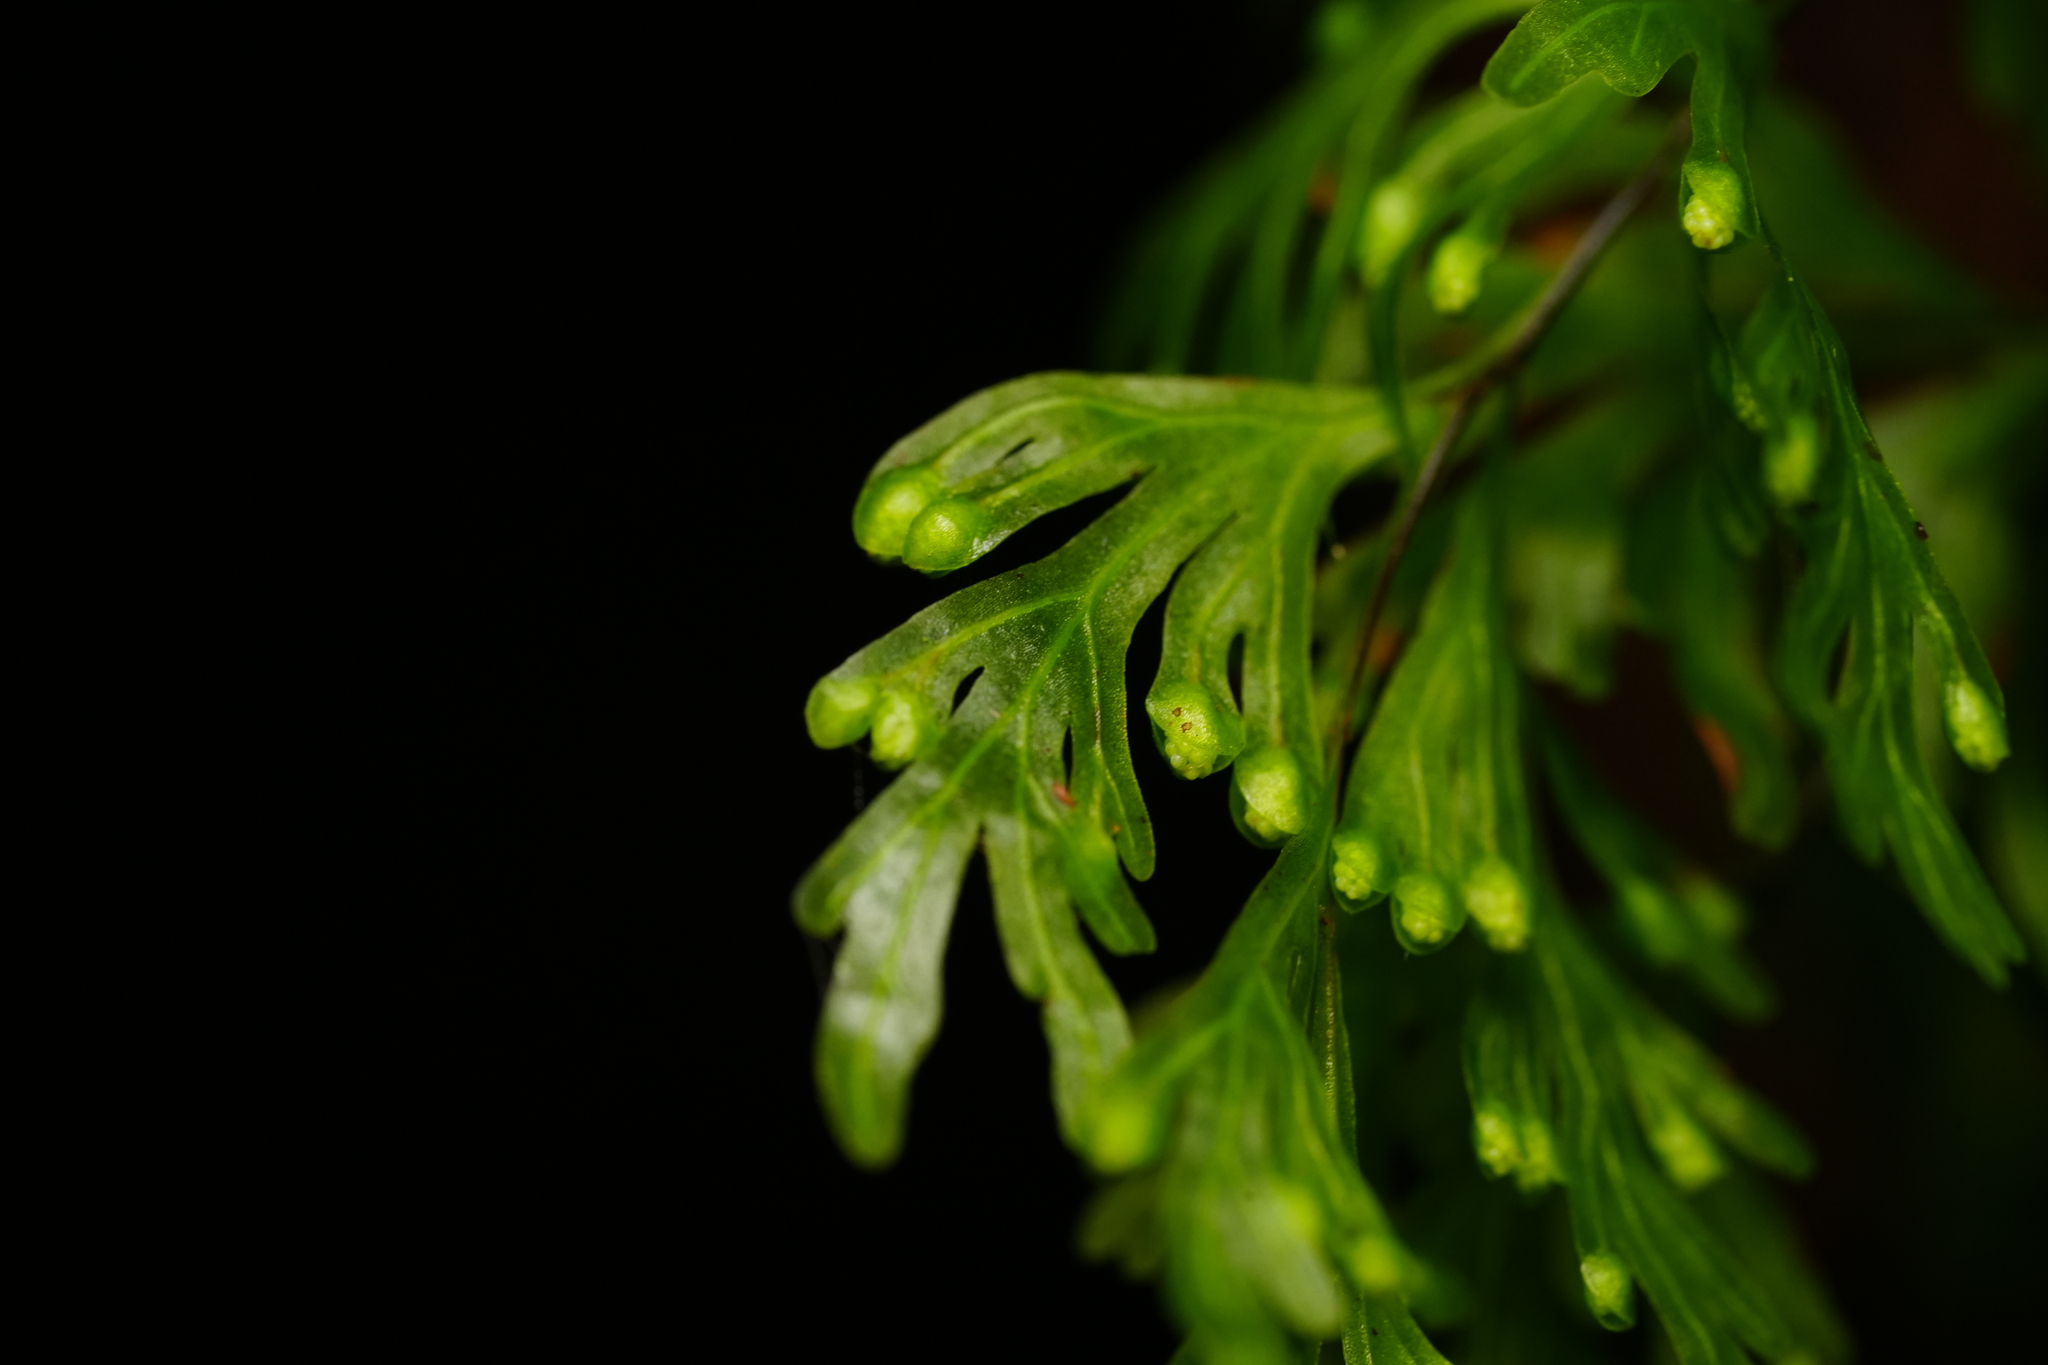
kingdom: Plantae
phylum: Tracheophyta
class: Polypodiopsida
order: Hymenophyllales
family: Hymenophyllaceae
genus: Hymenophyllum
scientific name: Hymenophyllum flabellatum
